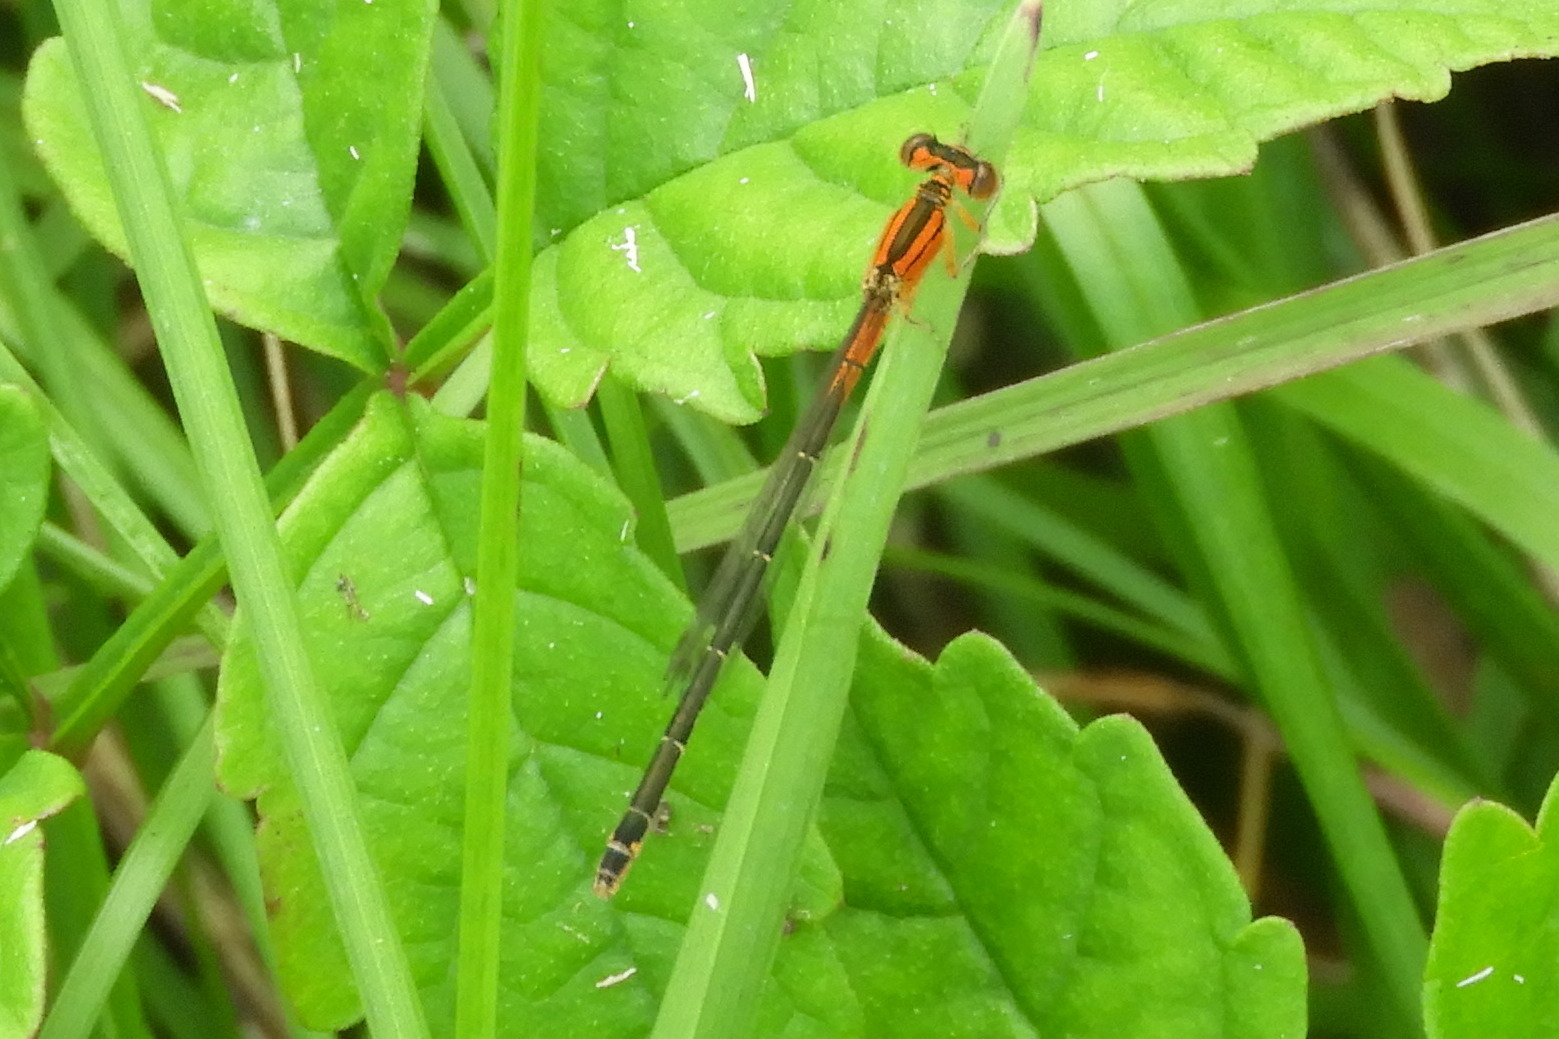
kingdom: Animalia
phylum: Arthropoda
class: Insecta
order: Odonata
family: Coenagrionidae
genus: Ischnura
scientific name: Ischnura verticalis
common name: Eastern forktail
